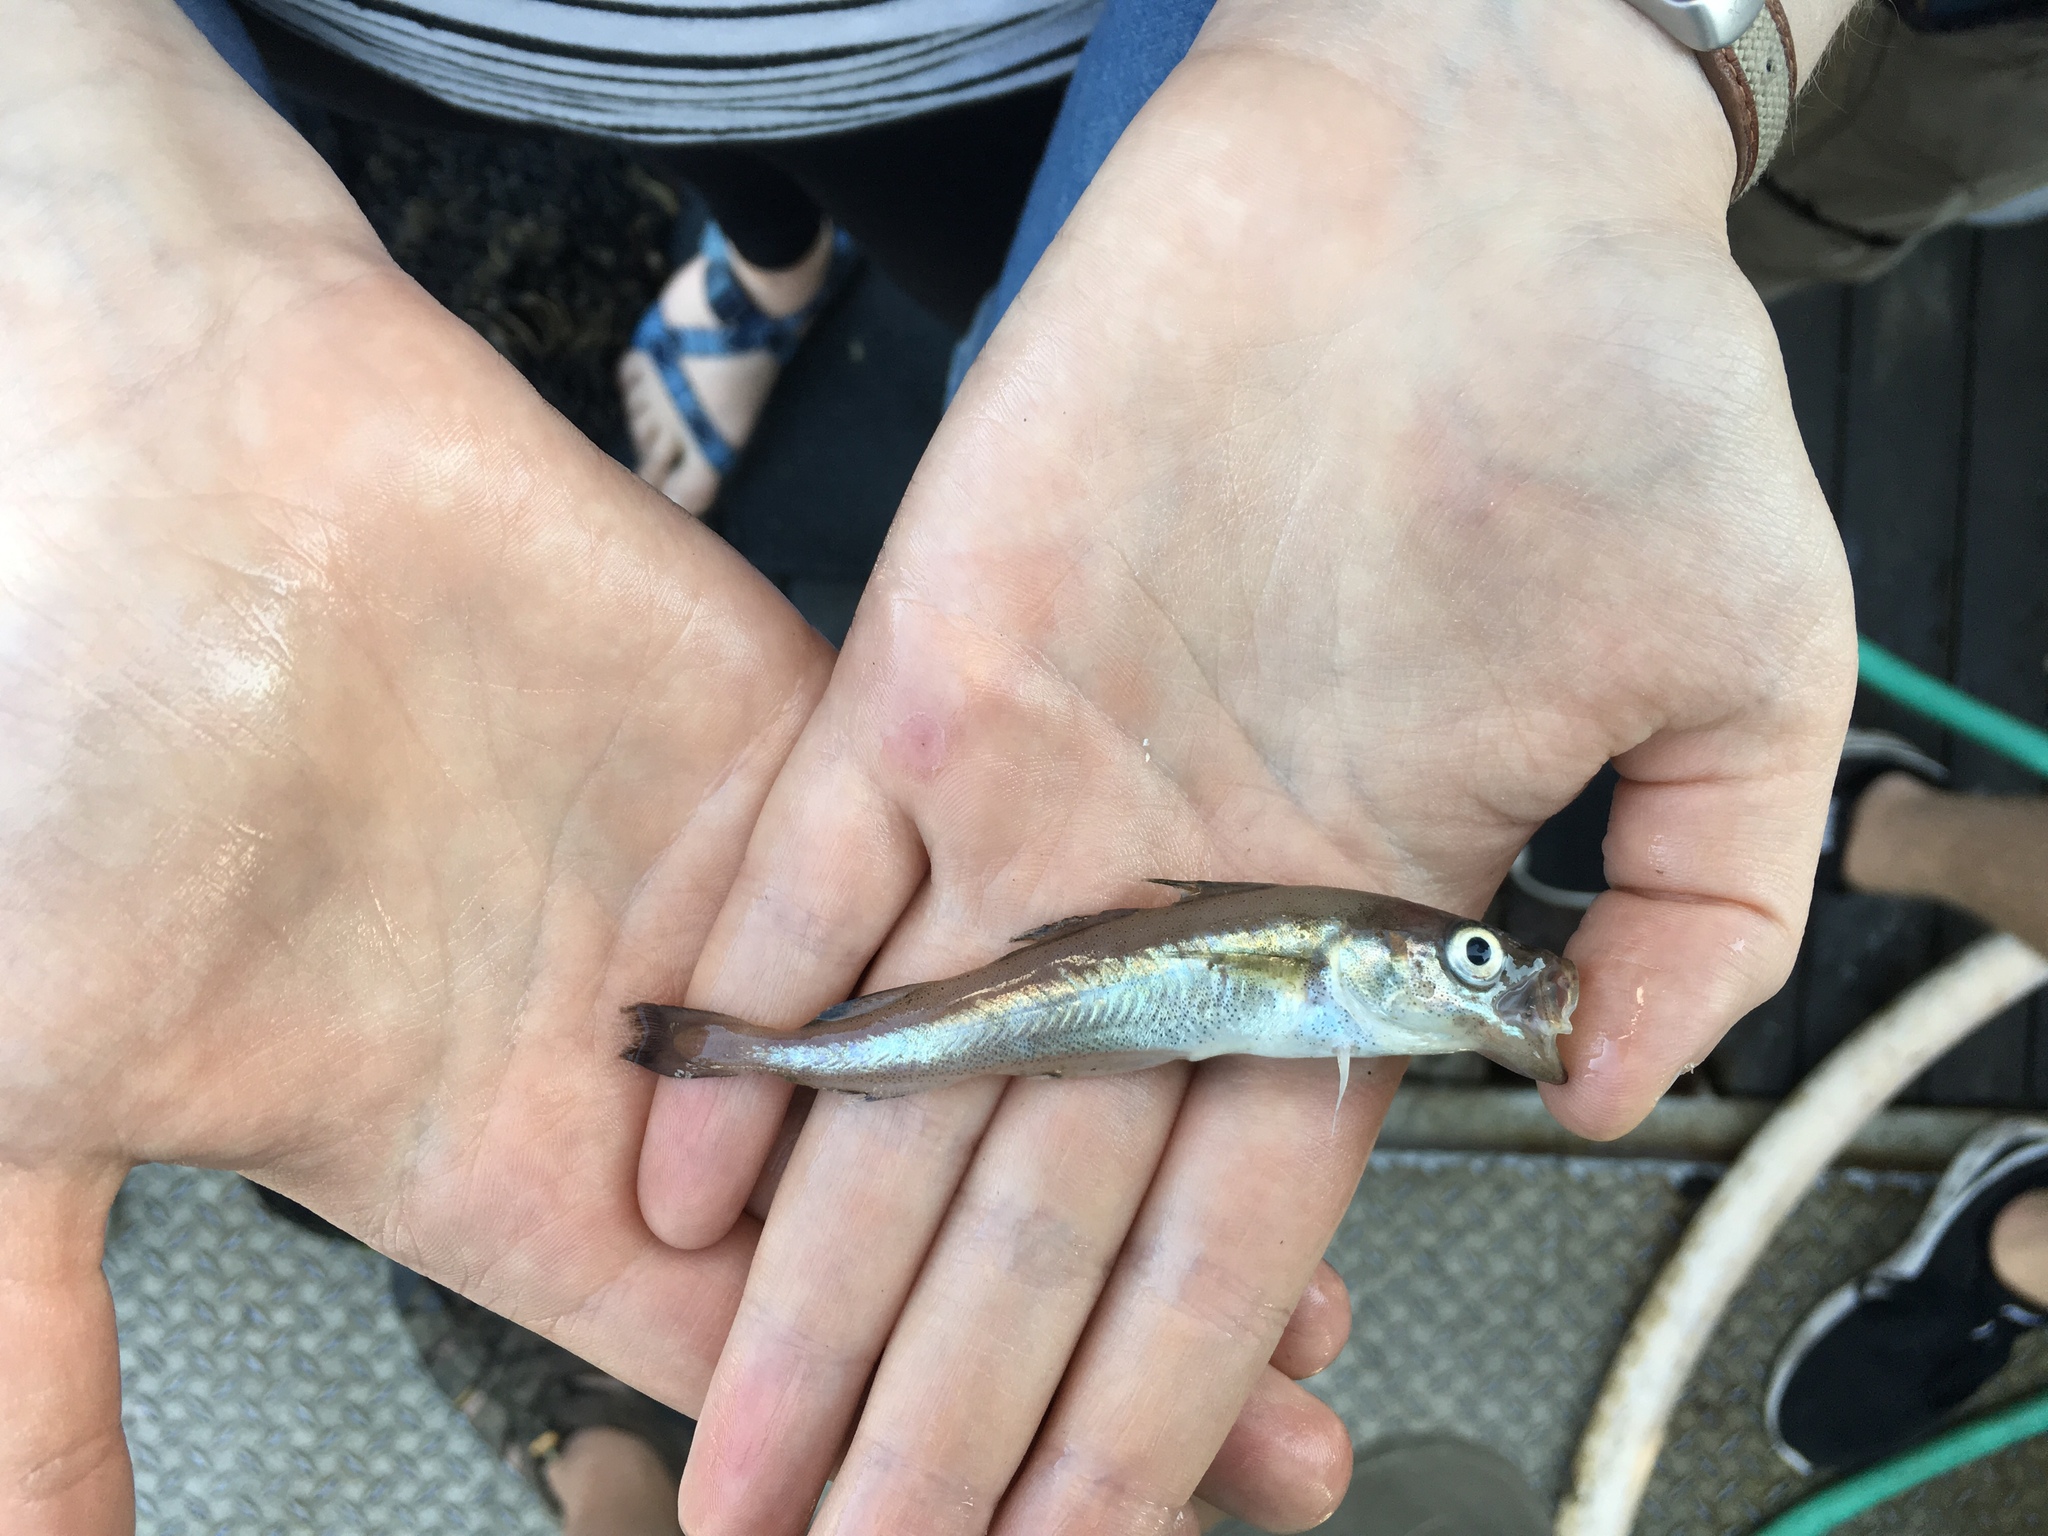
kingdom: Animalia
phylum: Chordata
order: Gadiformes
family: Gadidae
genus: Gadus
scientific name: Gadus chalcogrammus
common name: Walleye pollock
